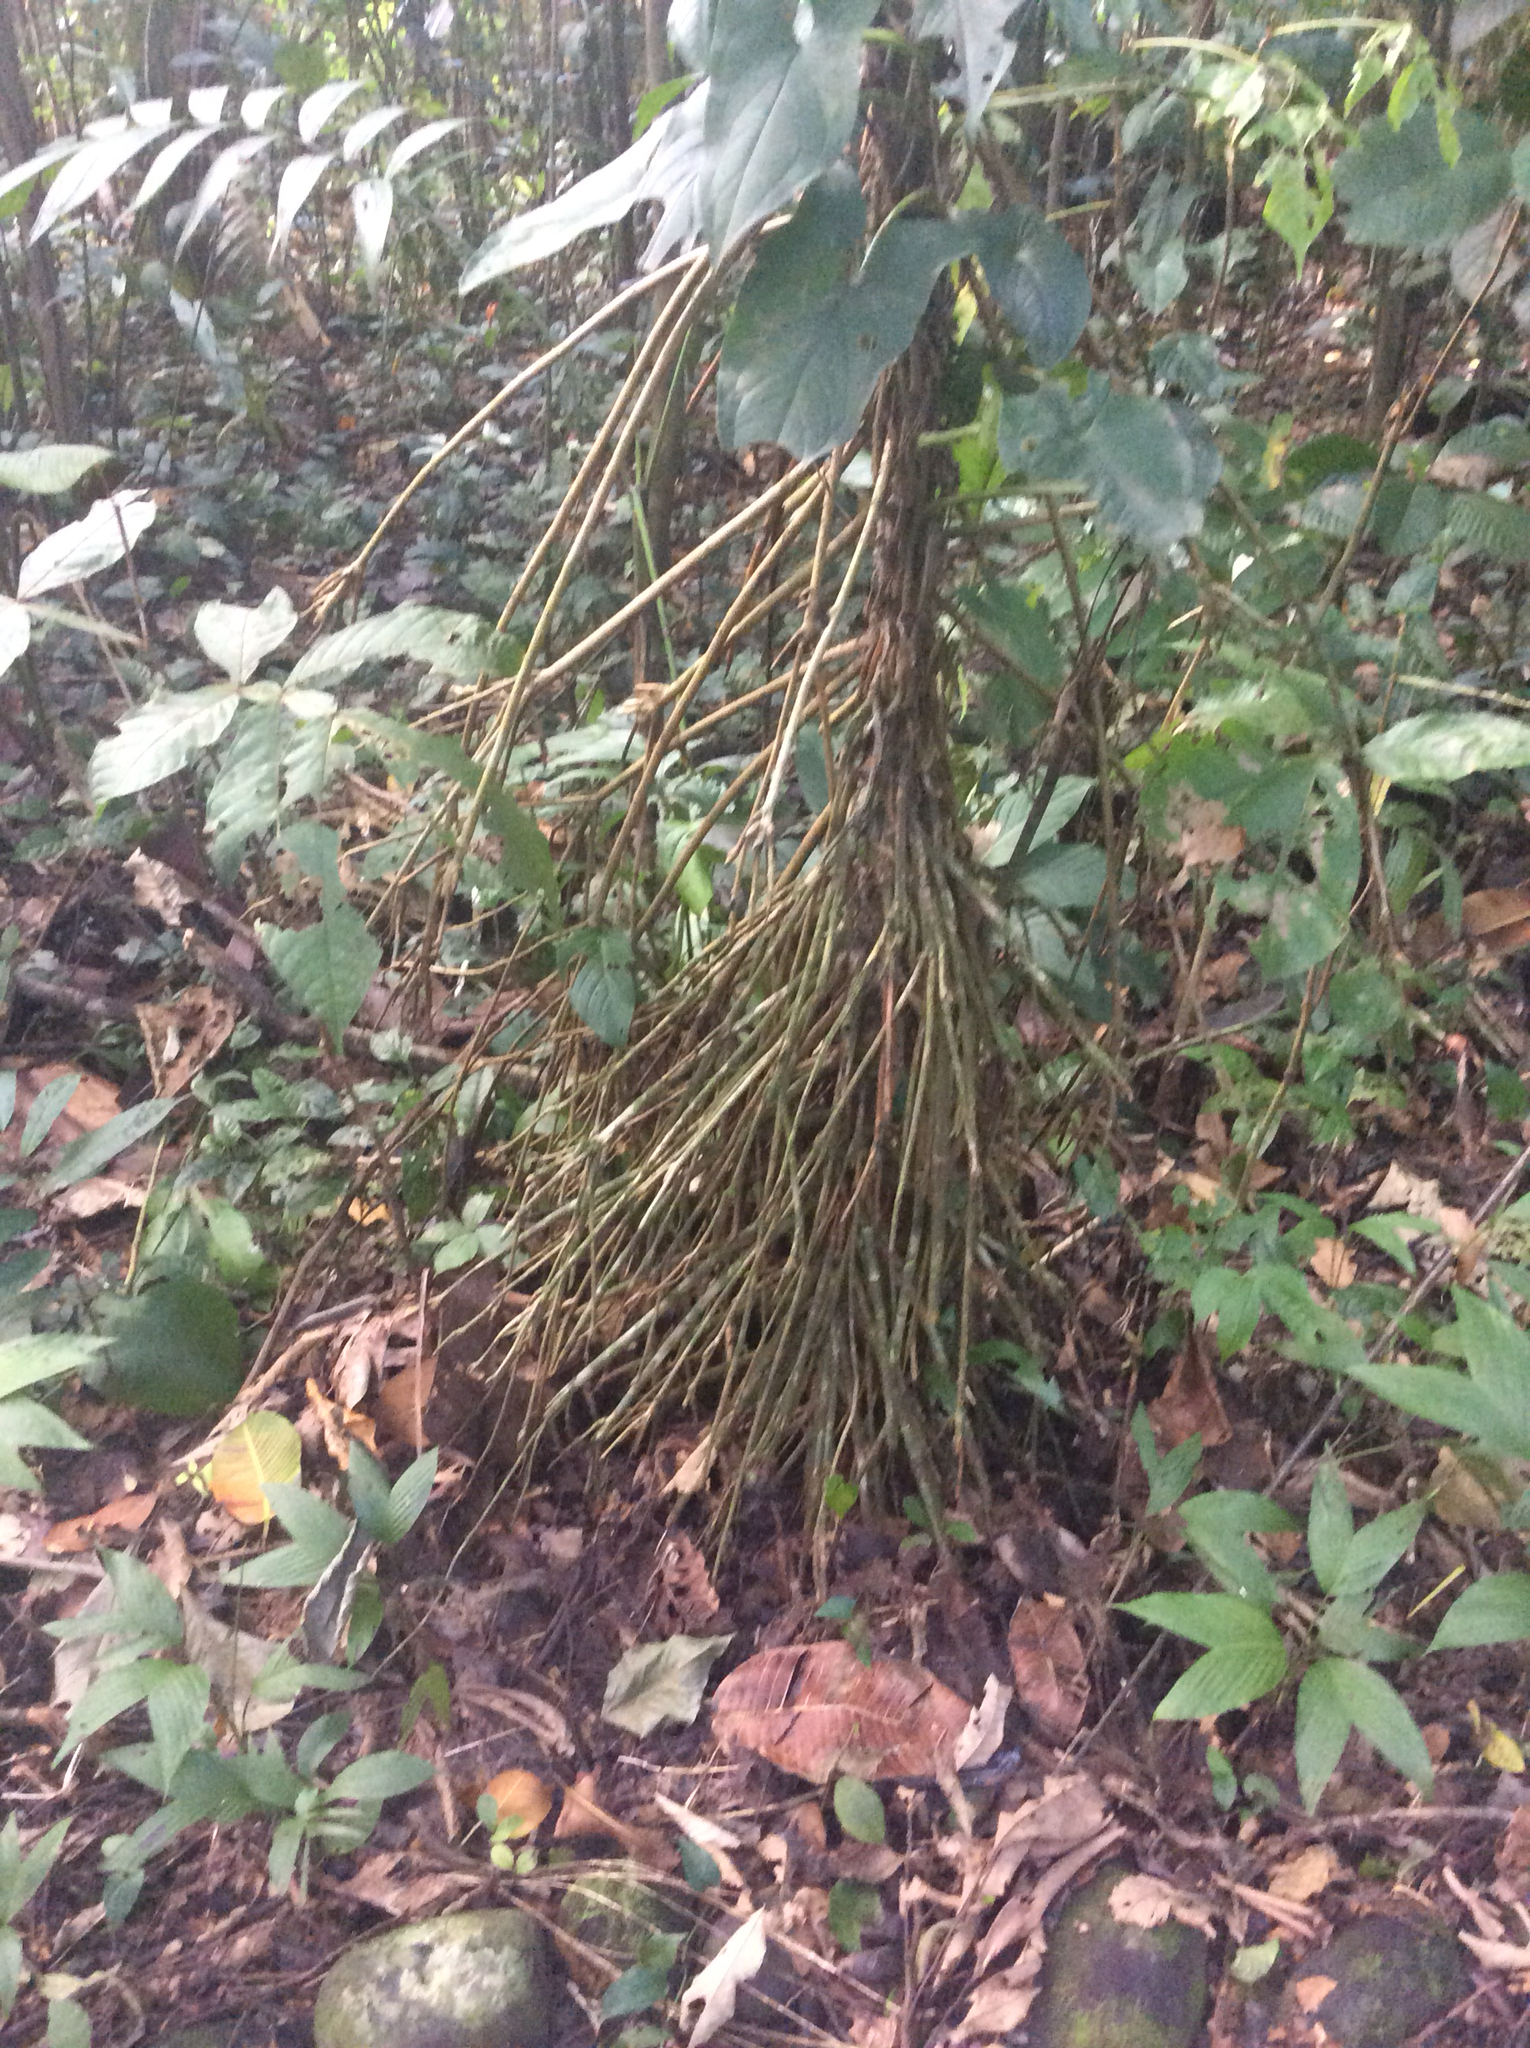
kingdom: Plantae
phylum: Tracheophyta
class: Liliopsida
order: Arecales
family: Arecaceae
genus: Socratea
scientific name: Socratea exorrhiza
